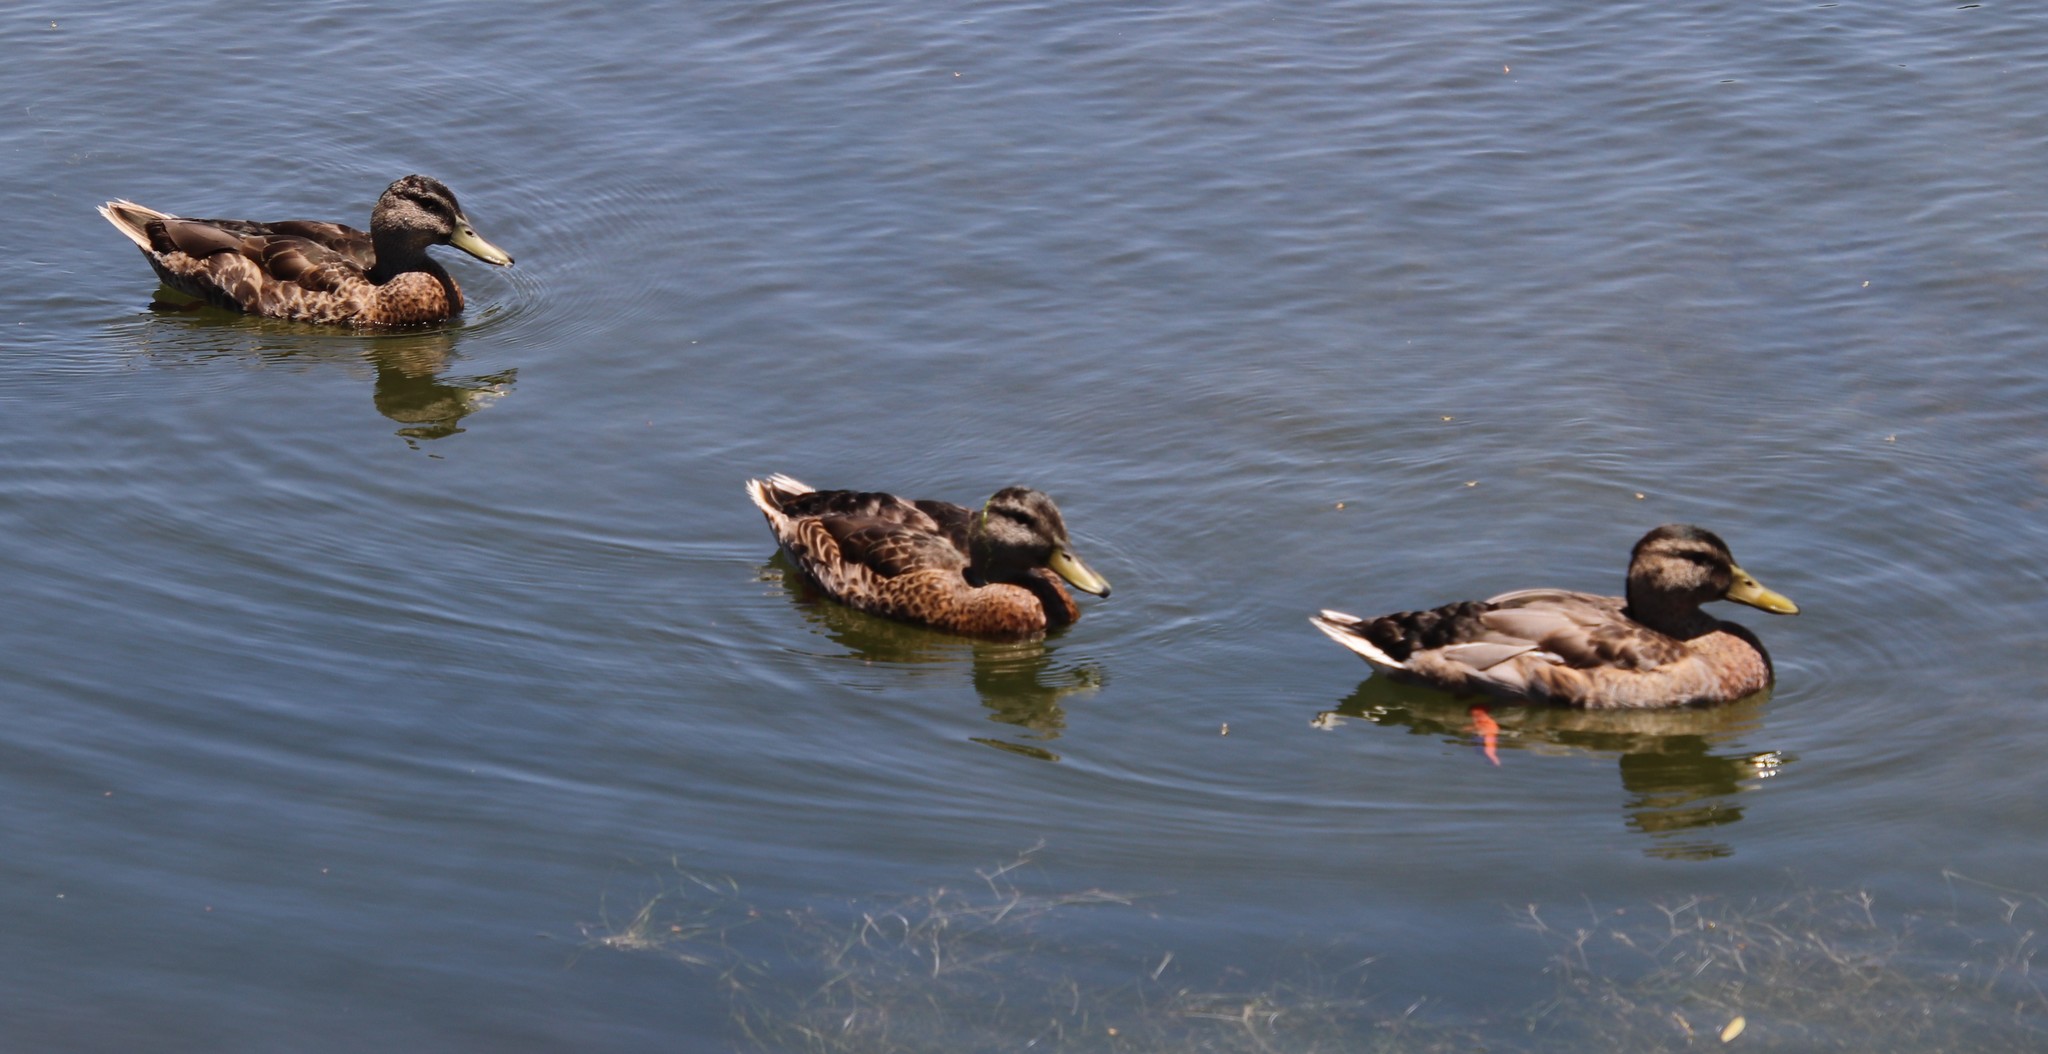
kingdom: Animalia
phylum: Chordata
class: Aves
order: Anseriformes
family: Anatidae
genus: Anas
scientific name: Anas platyrhynchos
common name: Mallard
